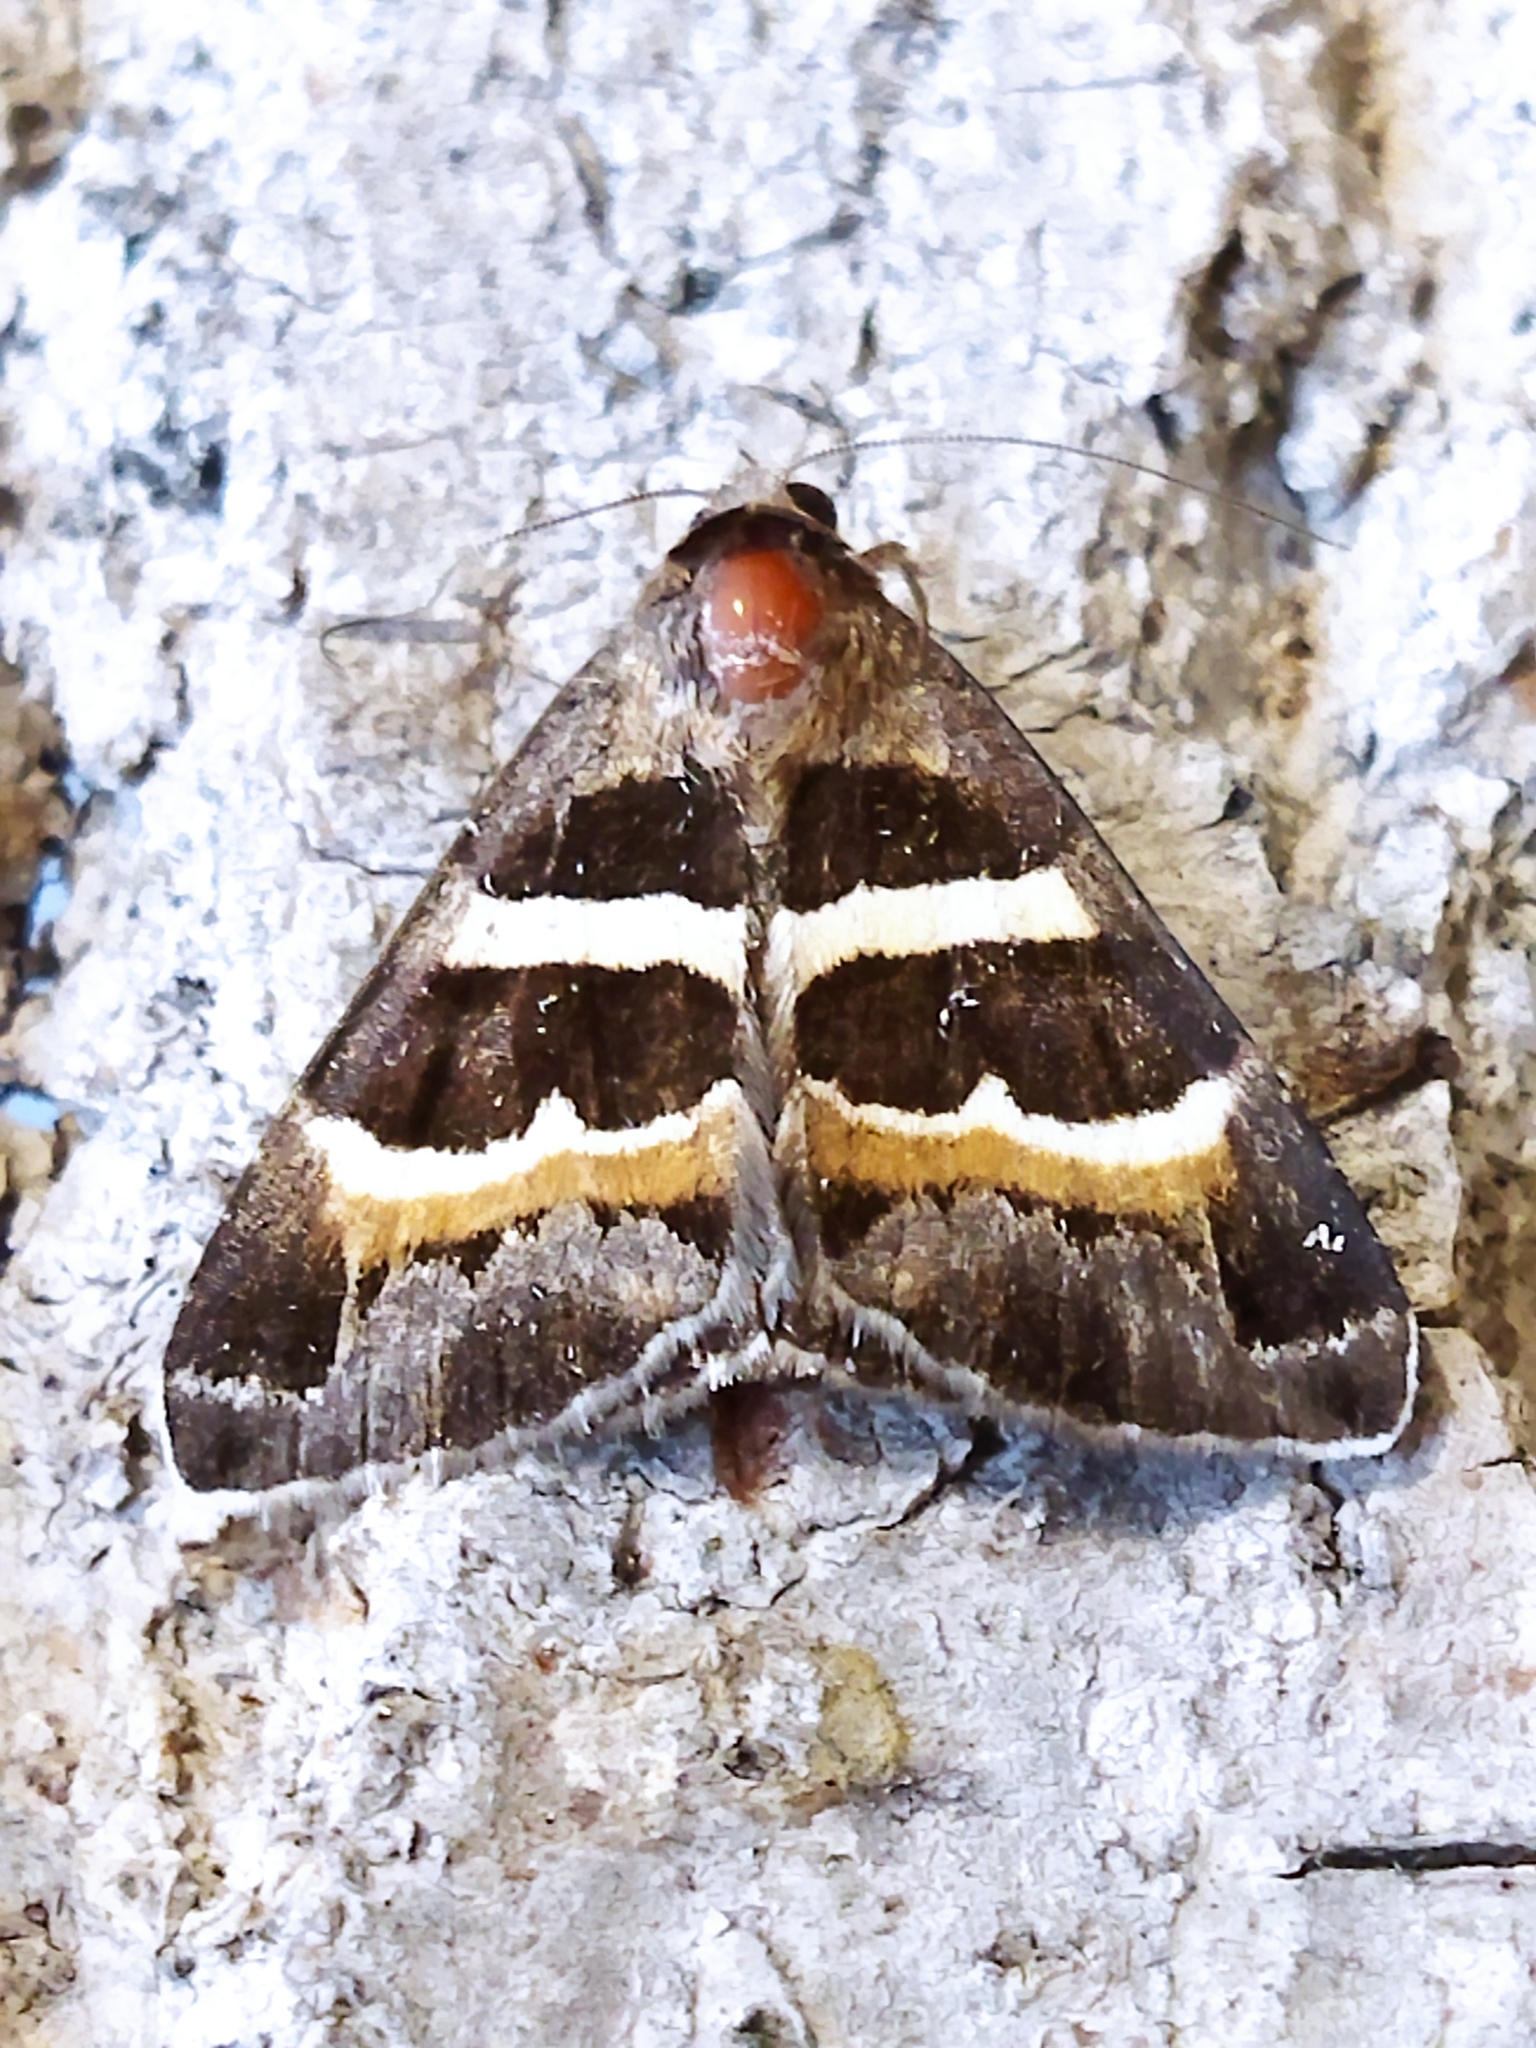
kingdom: Animalia
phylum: Arthropoda
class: Insecta
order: Lepidoptera
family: Erebidae
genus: Grammodes
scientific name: Grammodes stolida
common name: Geometrician
